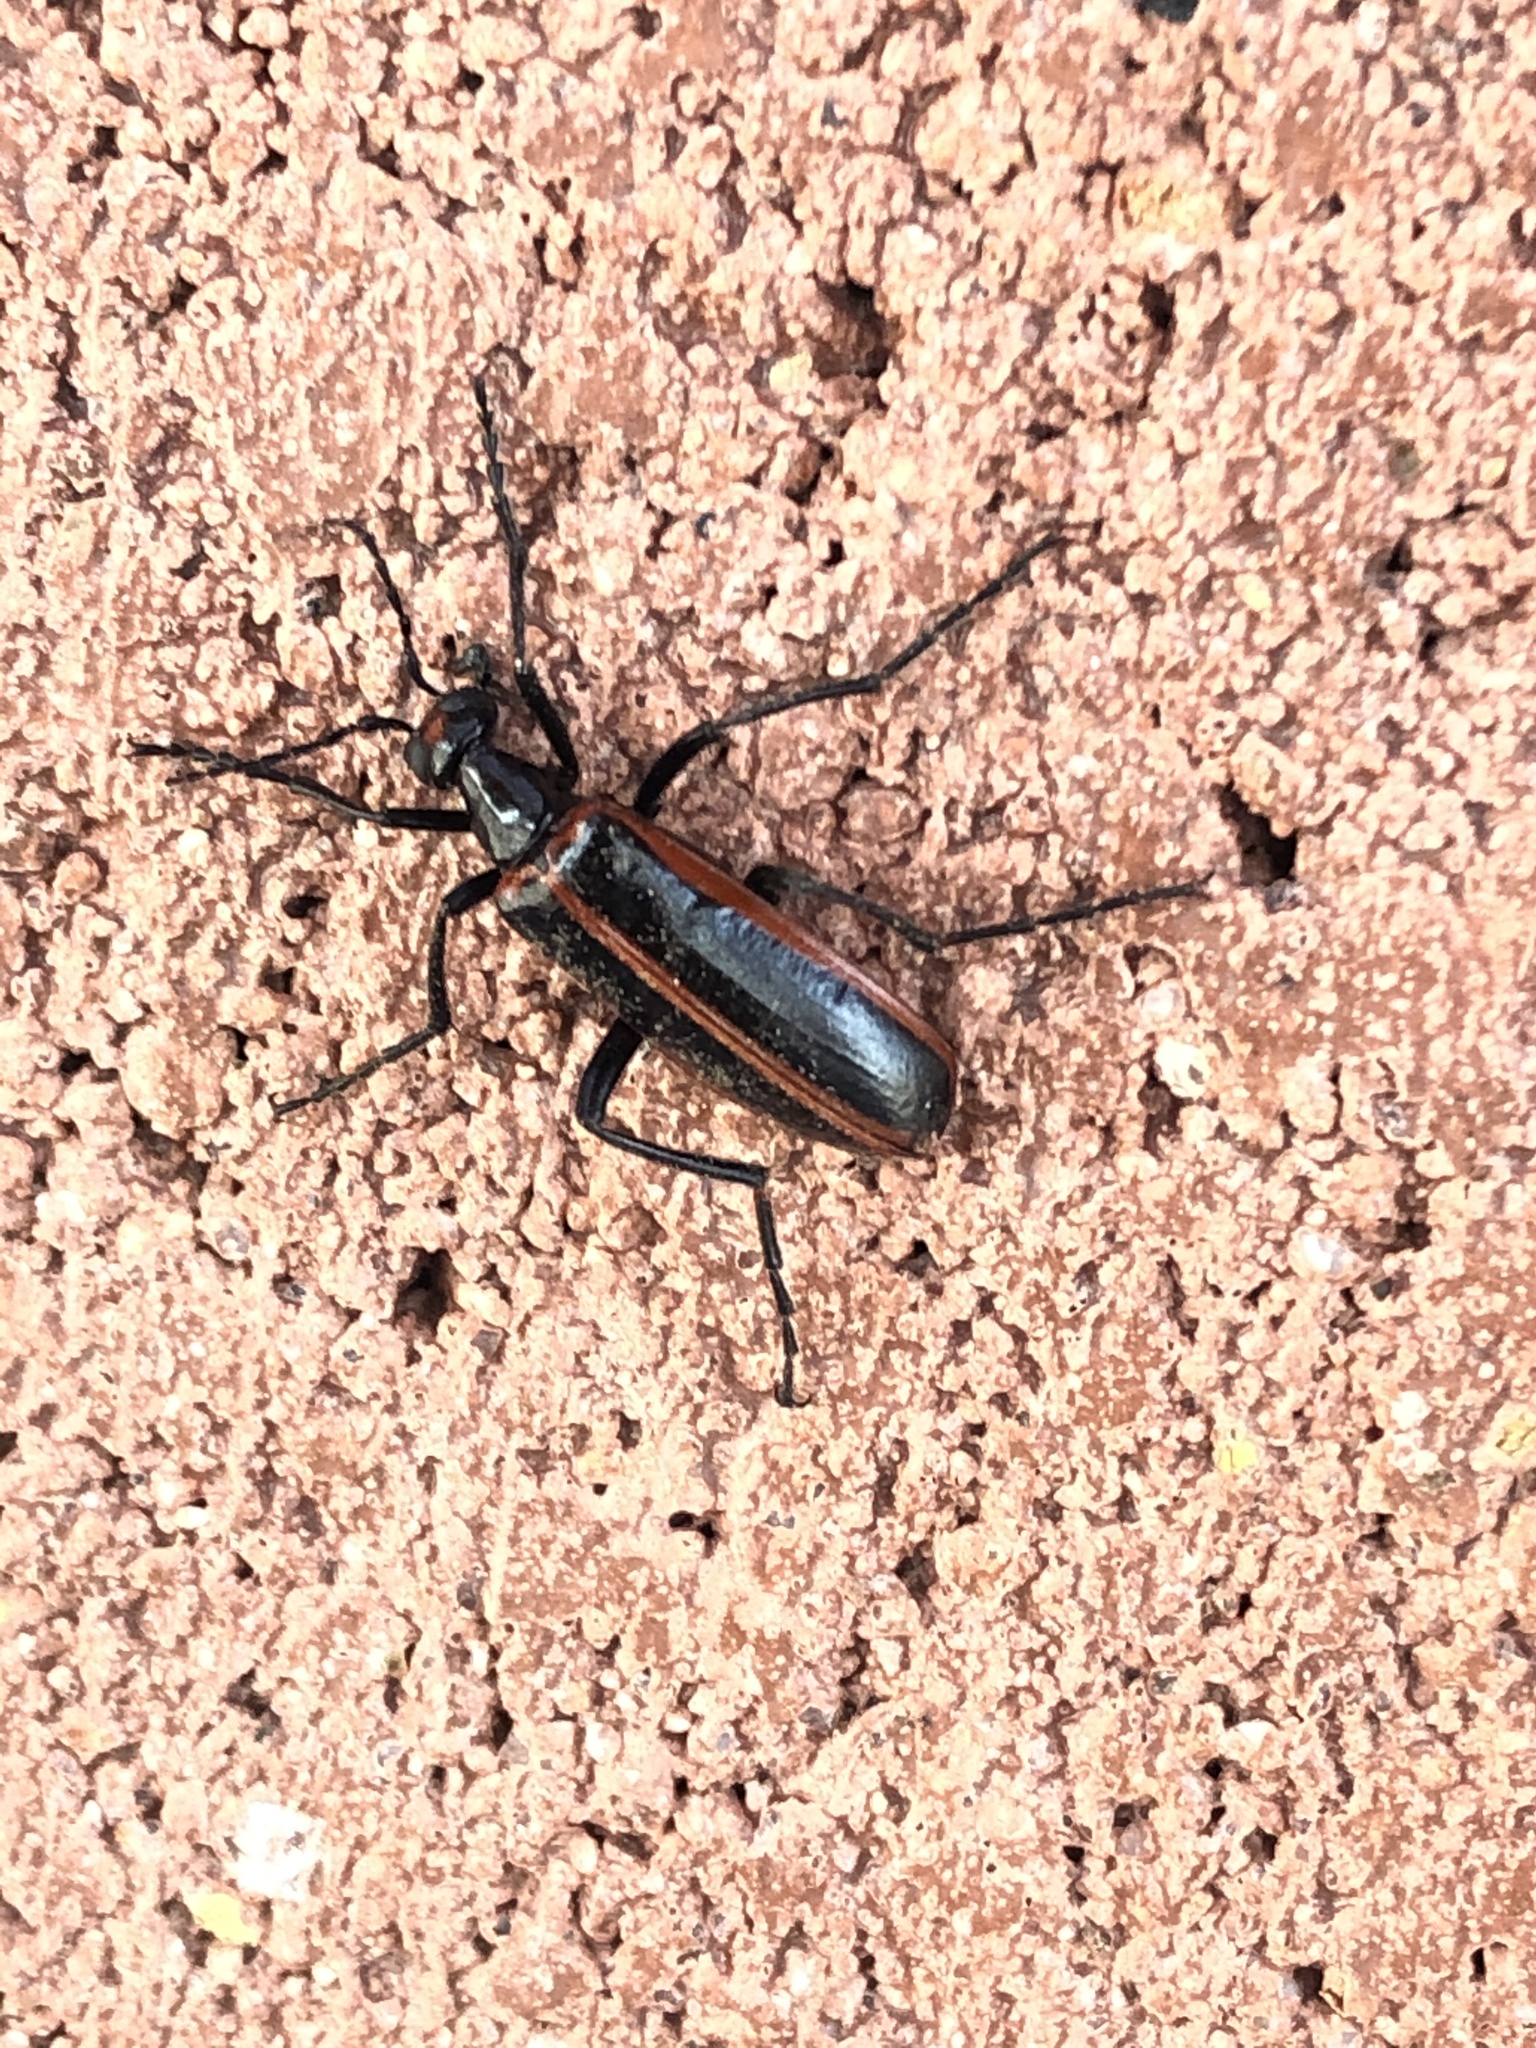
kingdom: Animalia
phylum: Arthropoda
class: Insecta
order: Coleoptera
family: Meloidae
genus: Pyrota
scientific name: Pyrota akhurstiana
